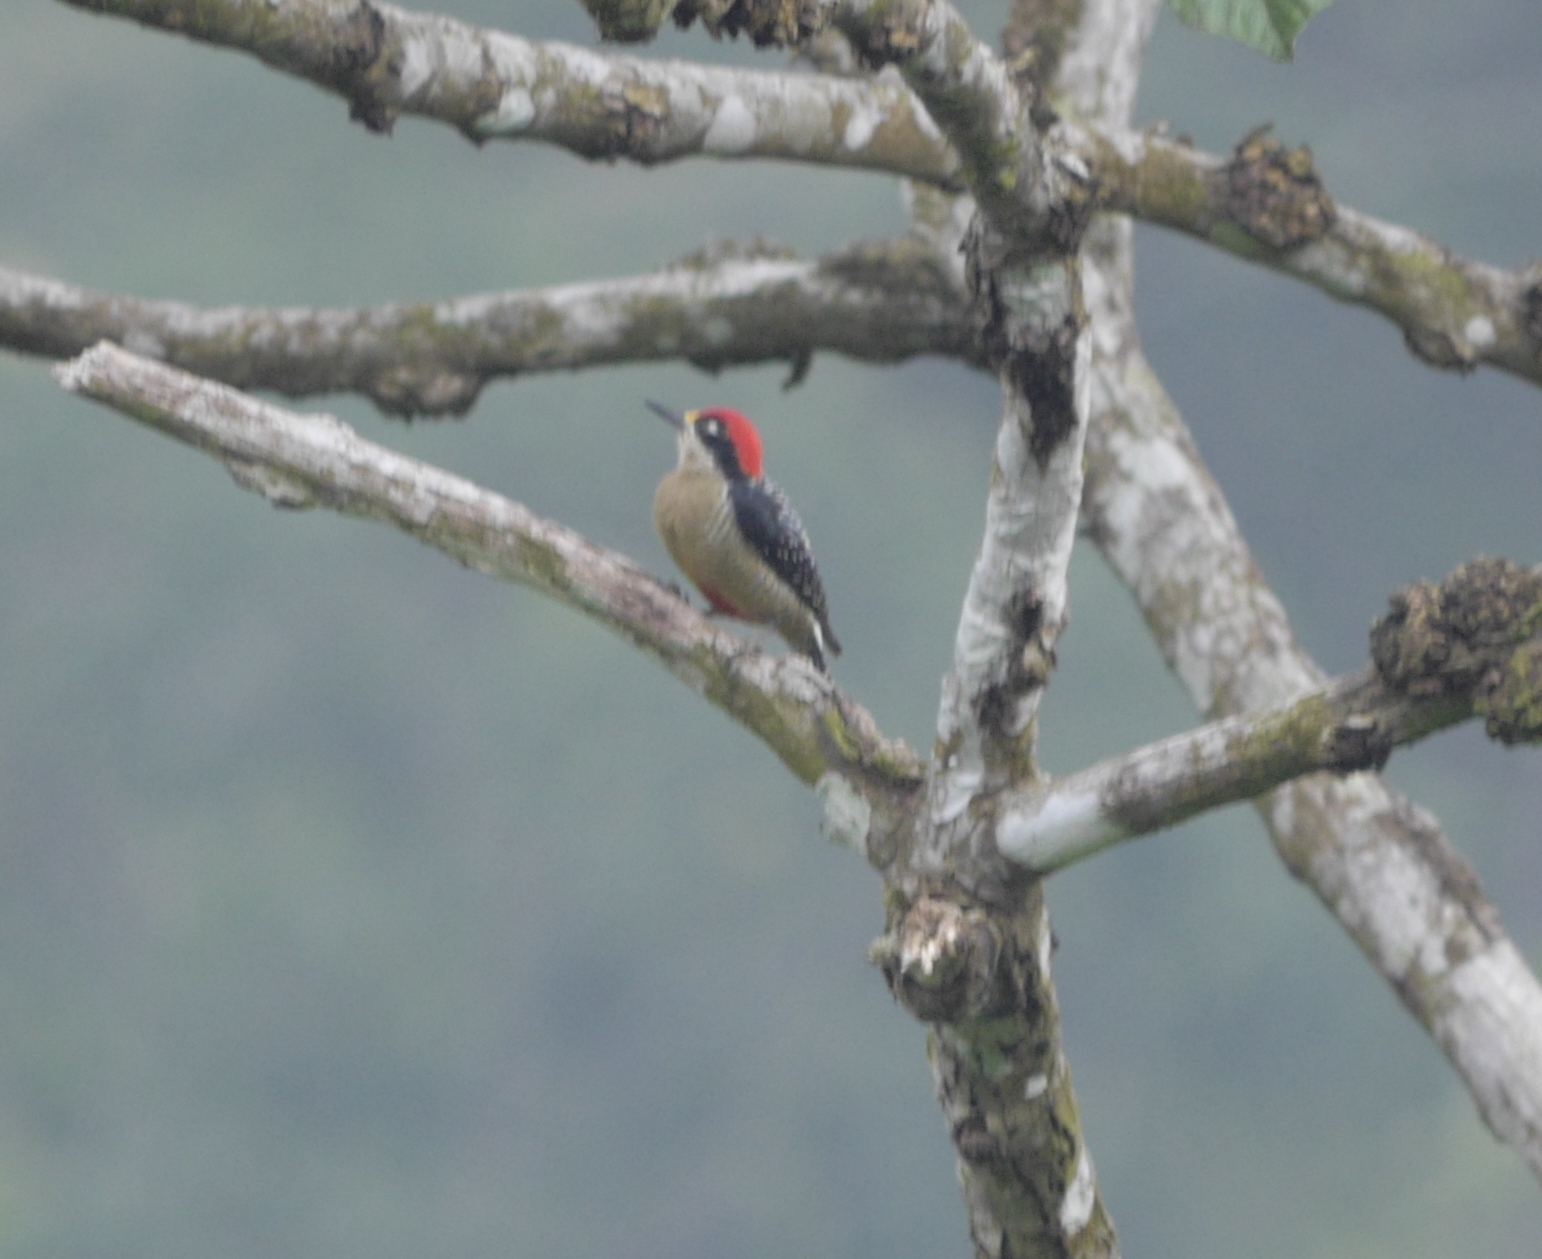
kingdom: Animalia
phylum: Chordata
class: Aves
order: Piciformes
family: Picidae
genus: Melanerpes
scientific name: Melanerpes pucherani
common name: Black-cheeked woodpecker
